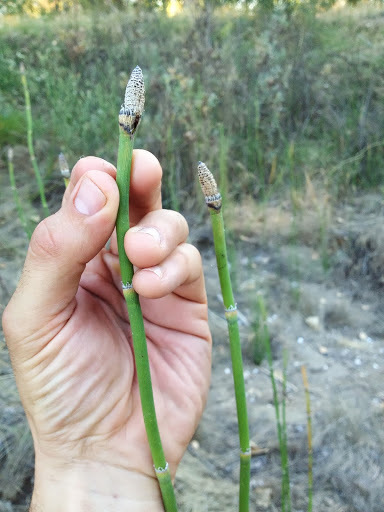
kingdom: Plantae
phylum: Tracheophyta
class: Polypodiopsida
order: Equisetales
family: Equisetaceae
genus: Equisetum
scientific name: Equisetum laevigatum
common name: Smooth scouring-rush
